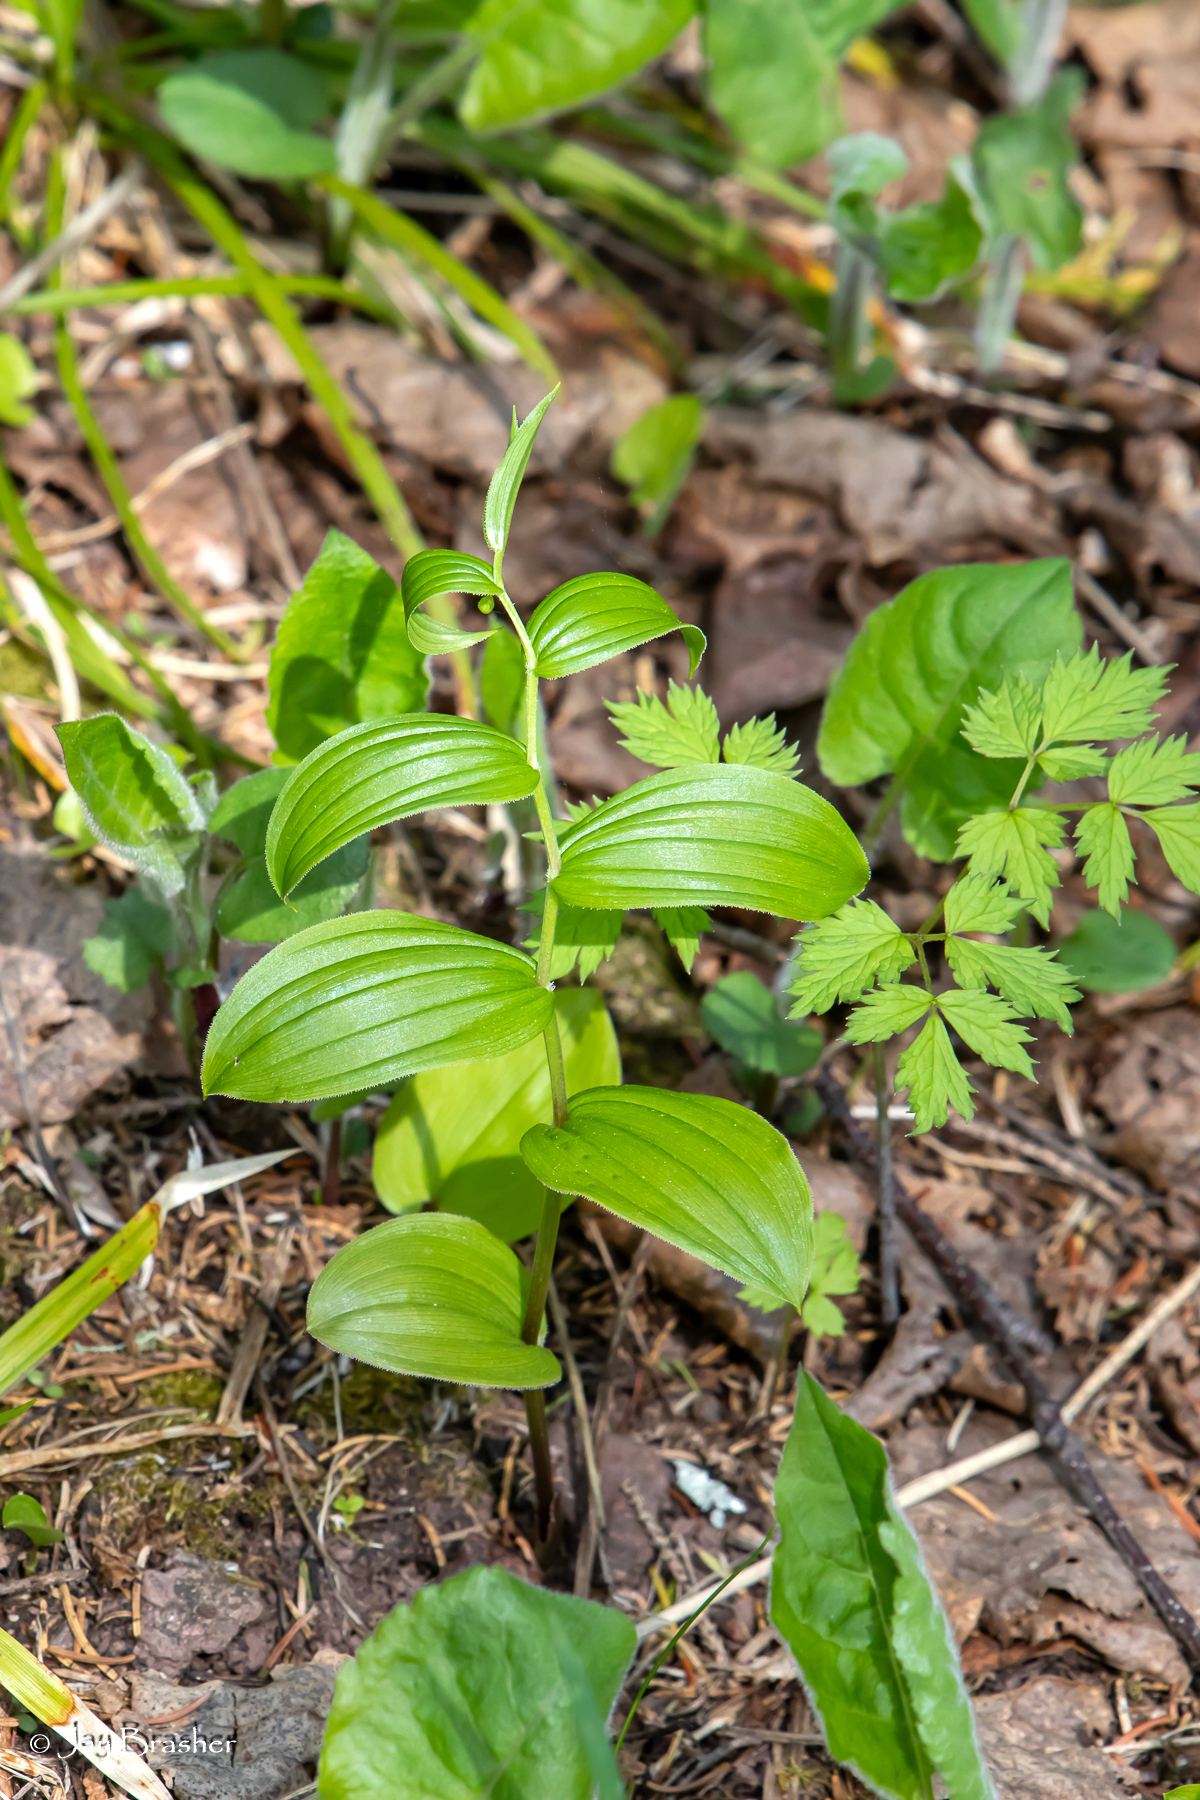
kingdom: Plantae
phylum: Tracheophyta
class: Liliopsida
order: Liliales
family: Liliaceae
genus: Streptopus
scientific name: Streptopus lanceolatus
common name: Rose mandarin
